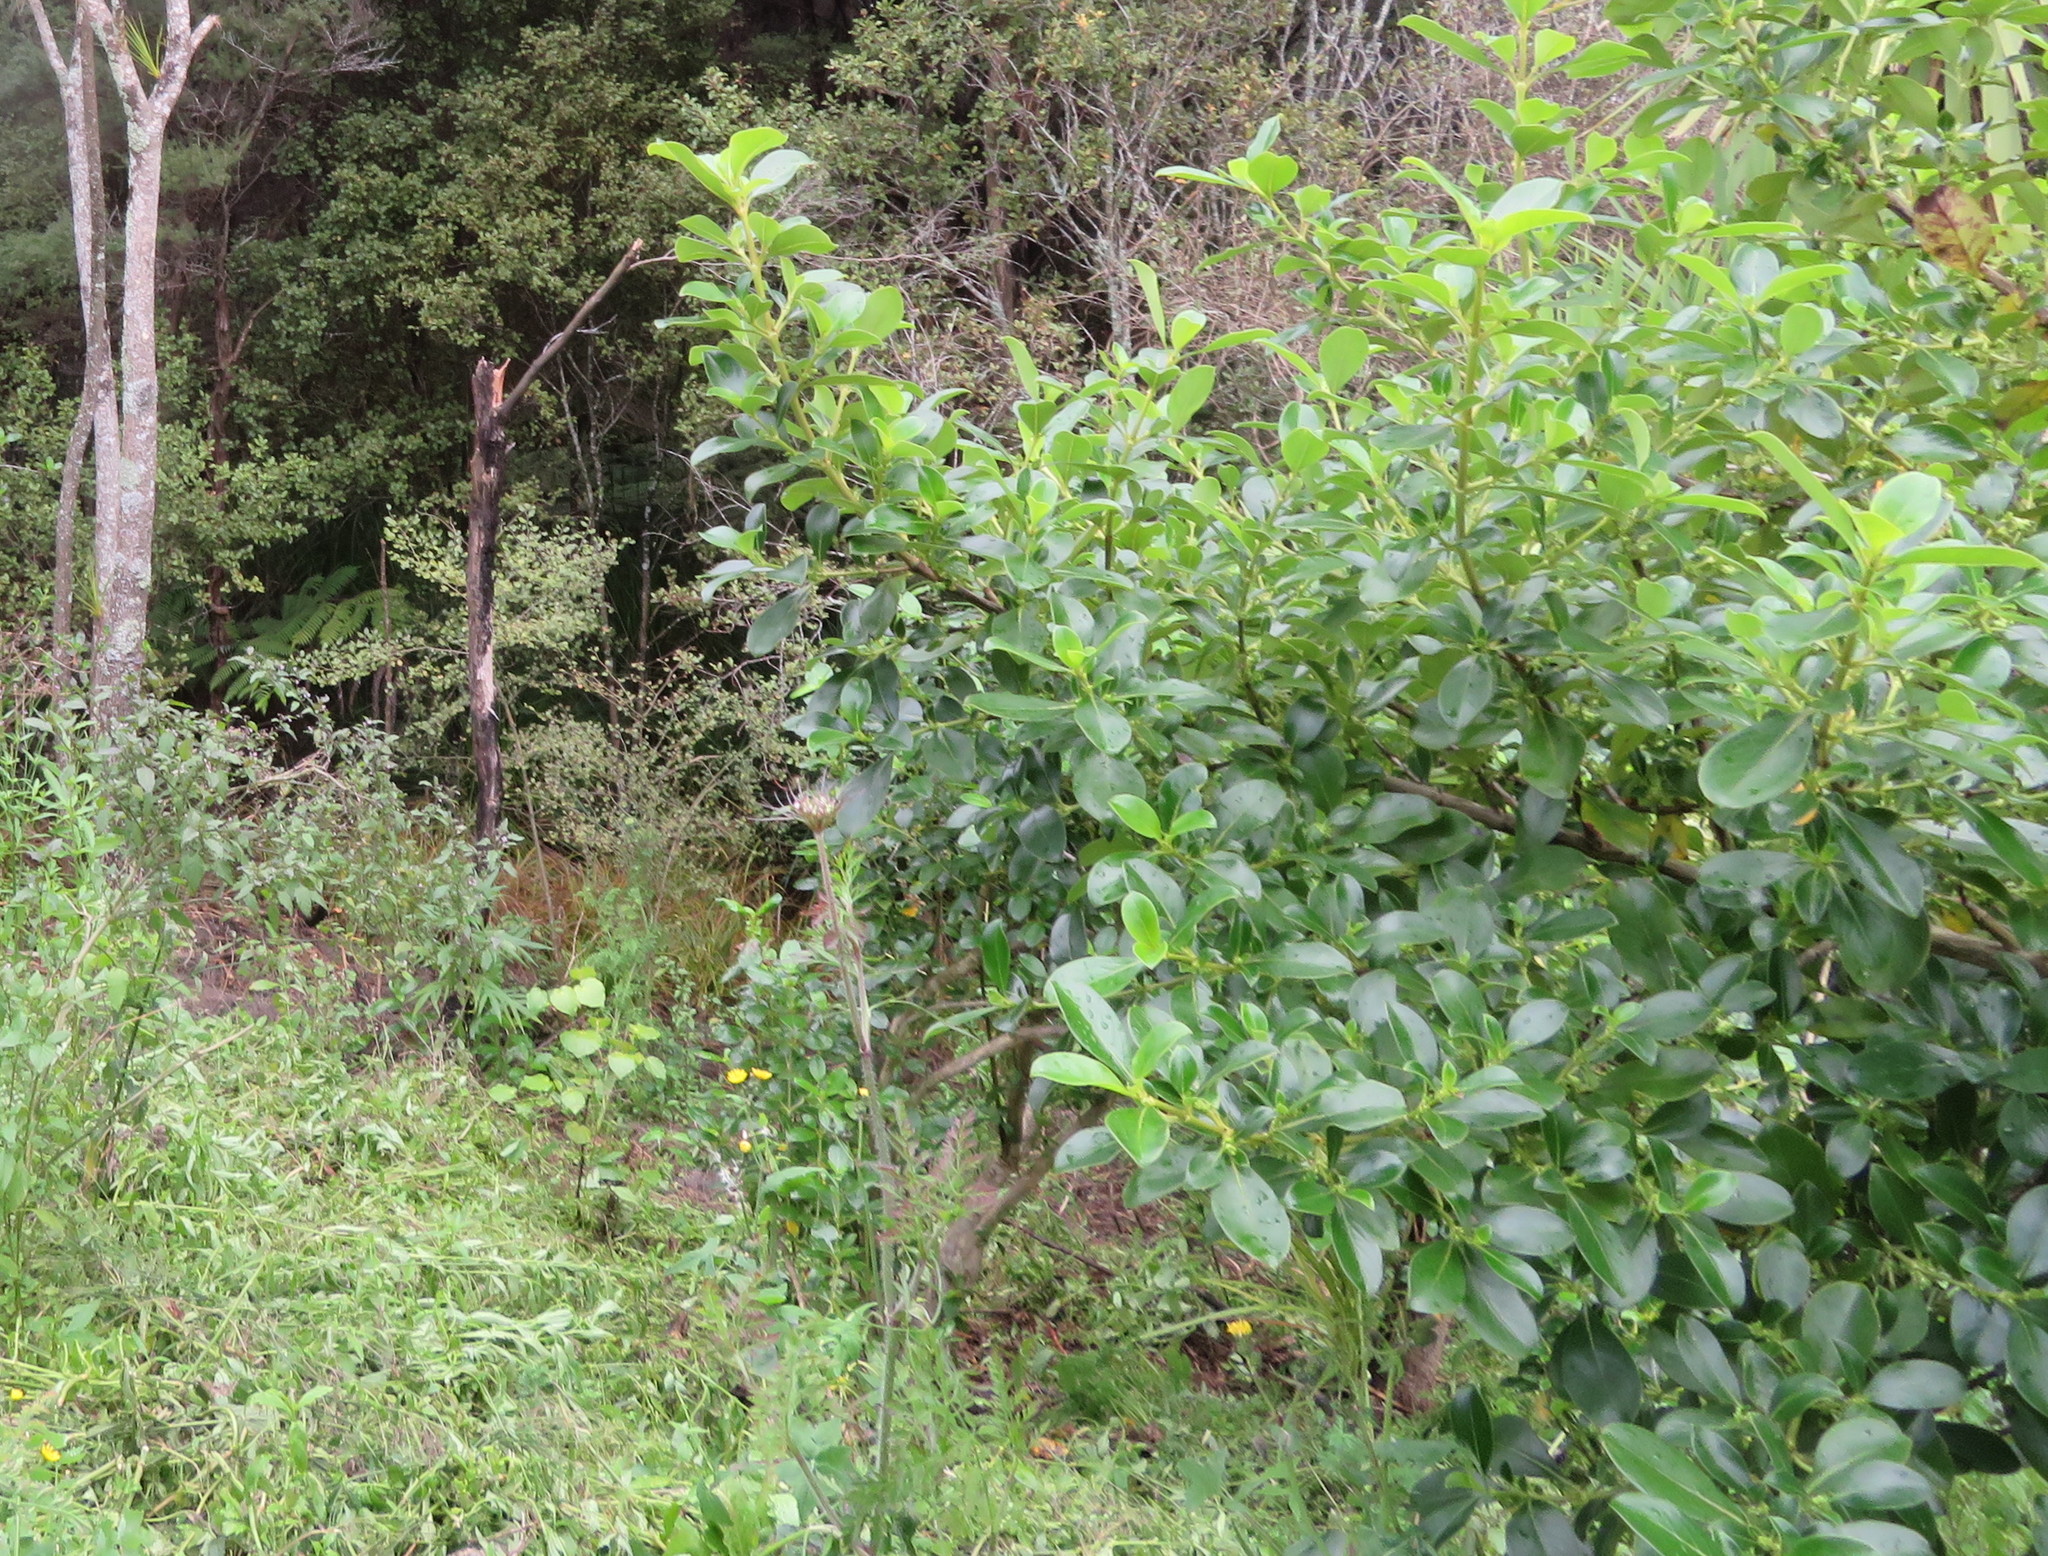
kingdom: Plantae
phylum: Tracheophyta
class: Magnoliopsida
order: Piperales
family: Piperaceae
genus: Macropiper
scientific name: Macropiper excelsum
